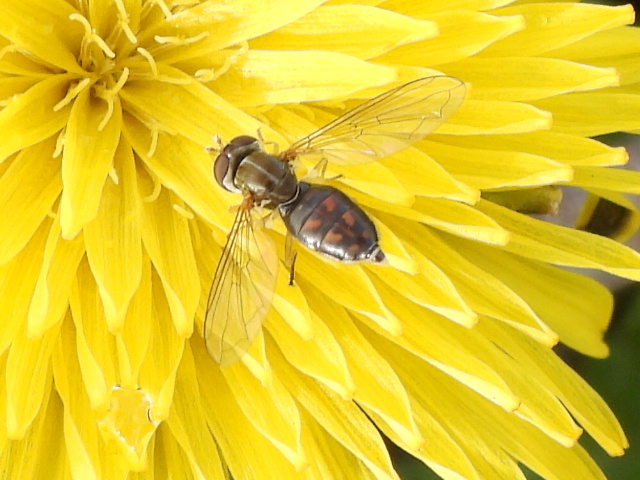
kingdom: Animalia
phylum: Arthropoda
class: Insecta
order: Diptera
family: Syrphidae
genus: Toxomerus
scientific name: Toxomerus marginatus
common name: Syrphid fly
